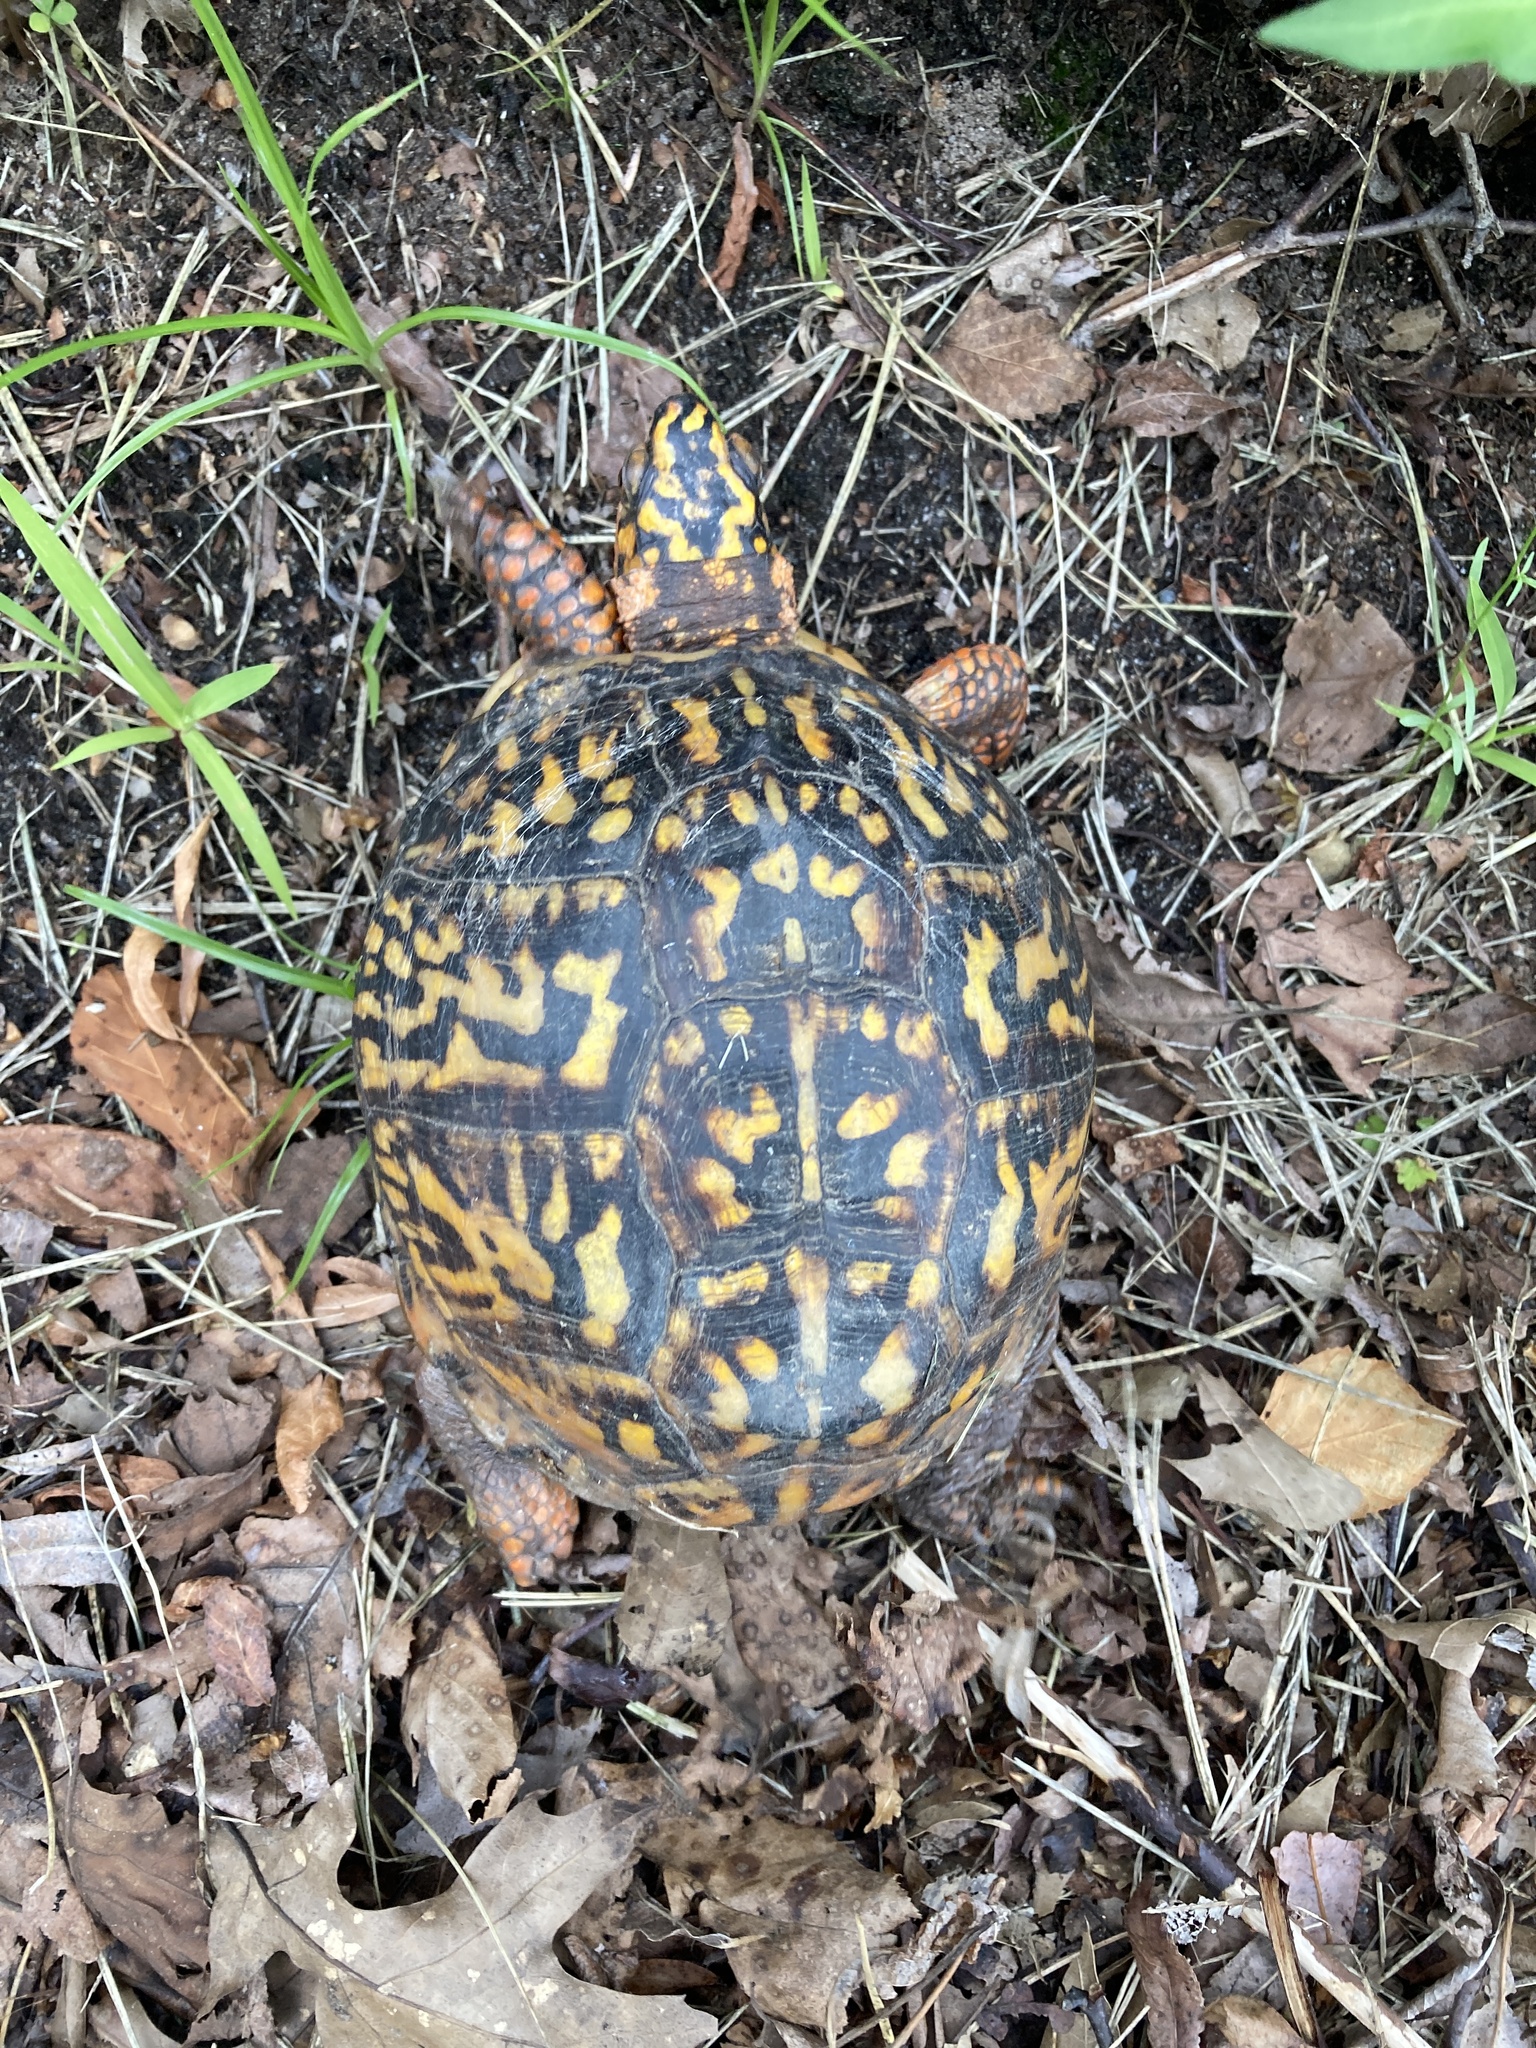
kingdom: Animalia
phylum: Chordata
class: Testudines
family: Emydidae
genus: Terrapene
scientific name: Terrapene carolina
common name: Common box turtle
